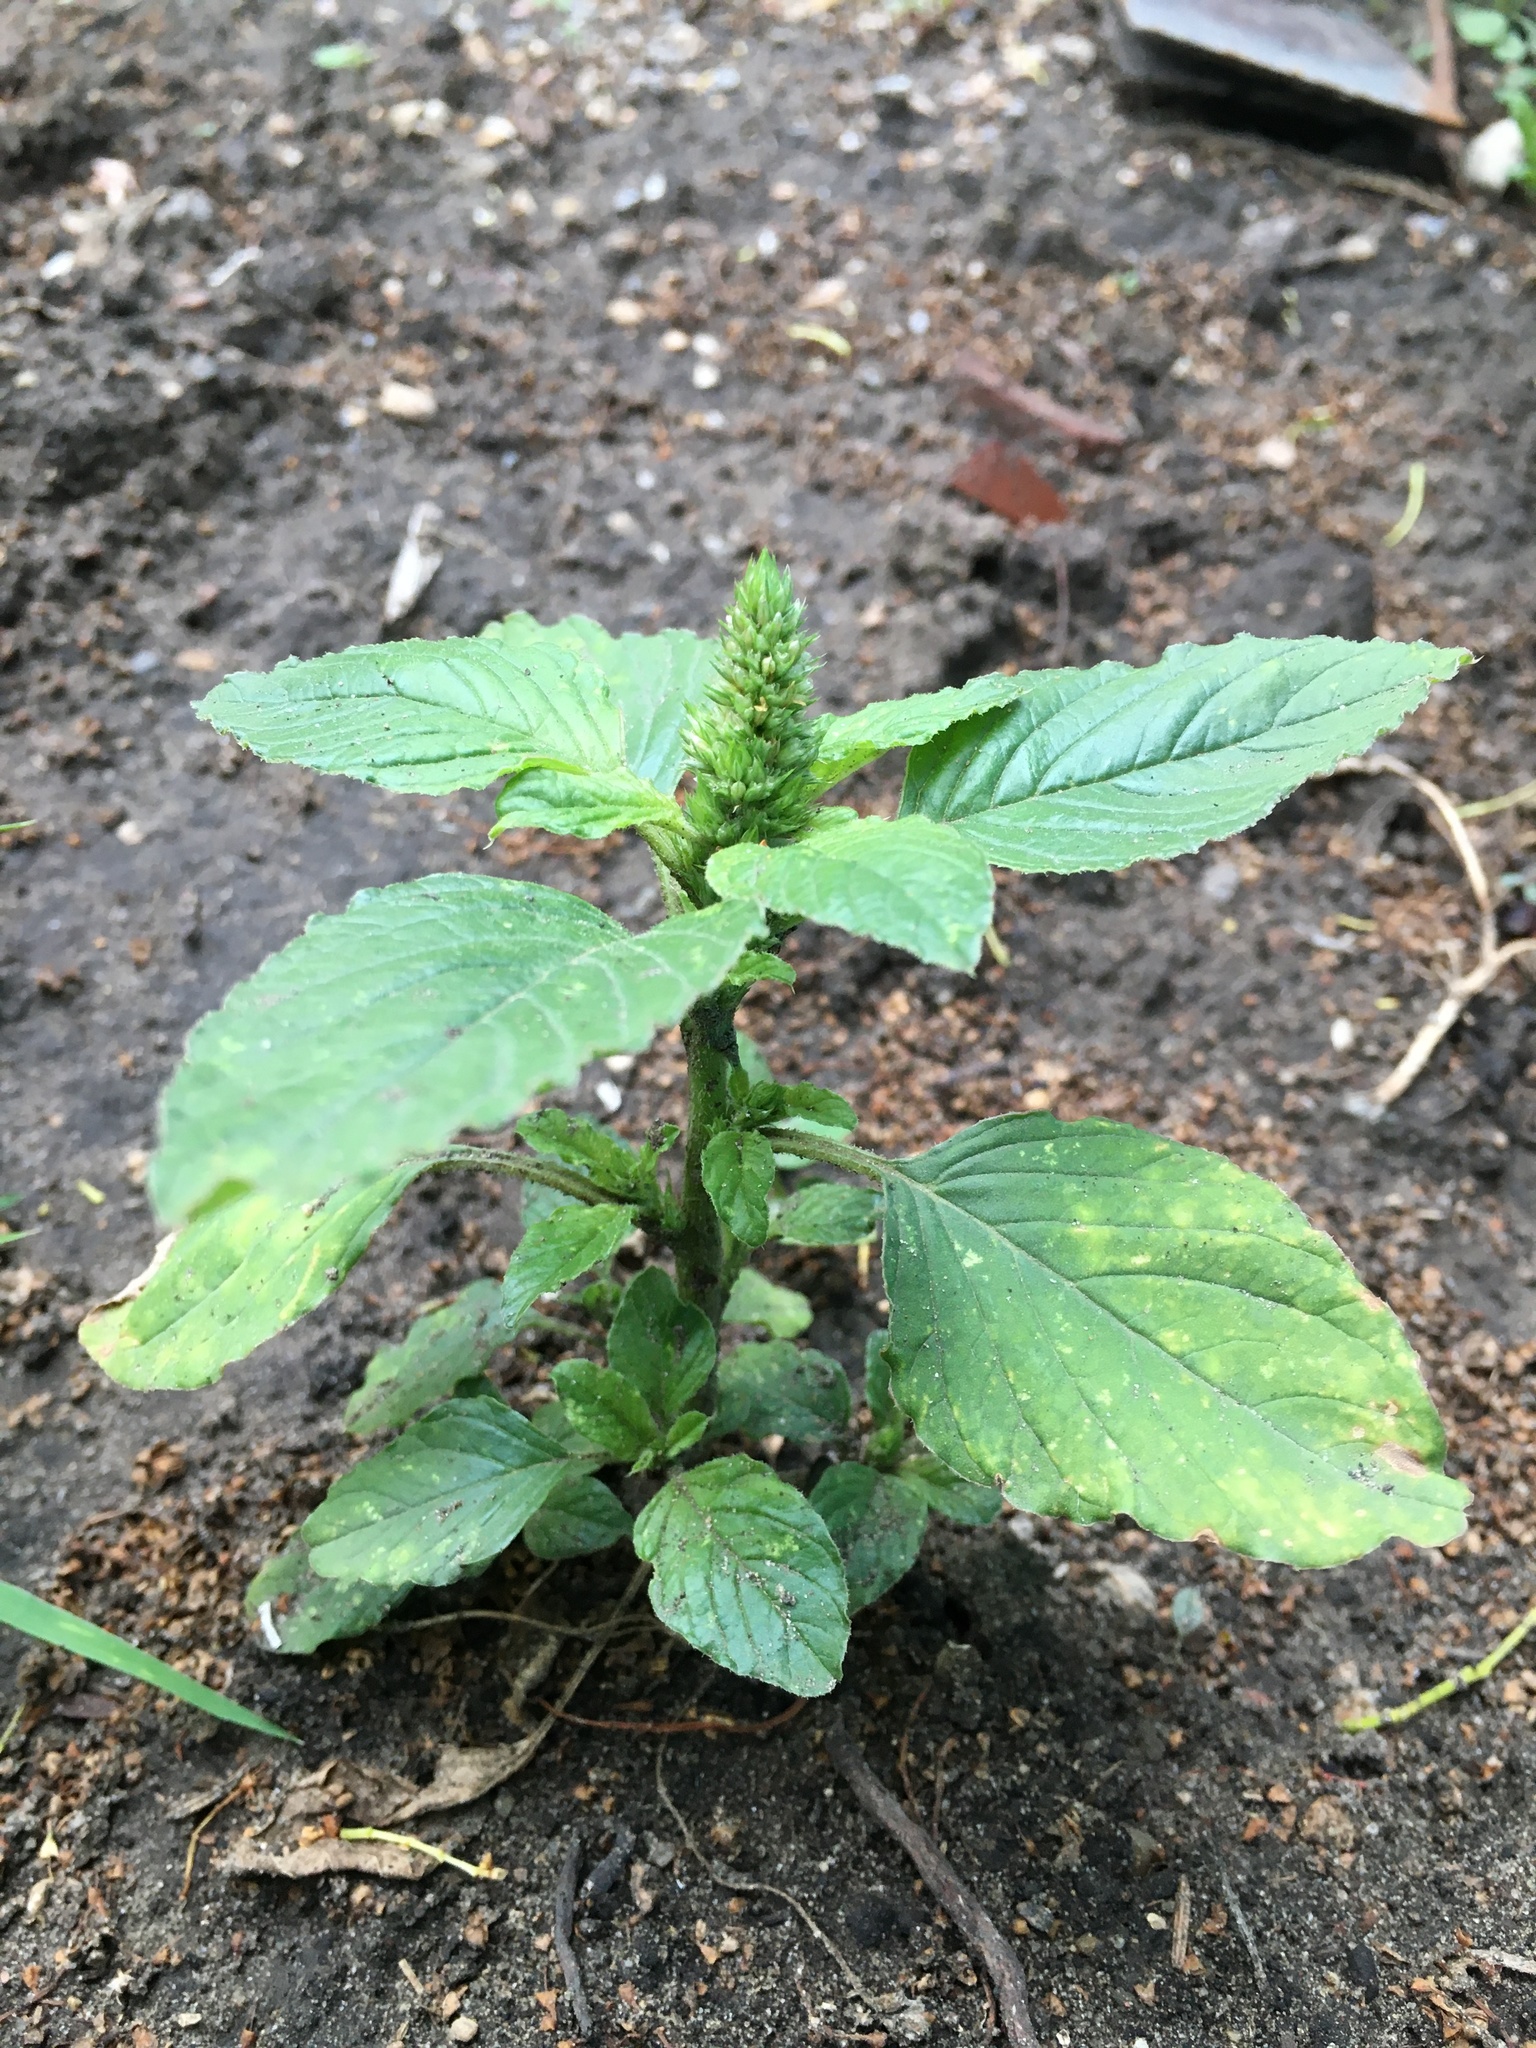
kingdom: Plantae
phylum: Tracheophyta
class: Magnoliopsida
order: Caryophyllales
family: Amaranthaceae
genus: Amaranthus
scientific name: Amaranthus retroflexus
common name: Redroot amaranth
